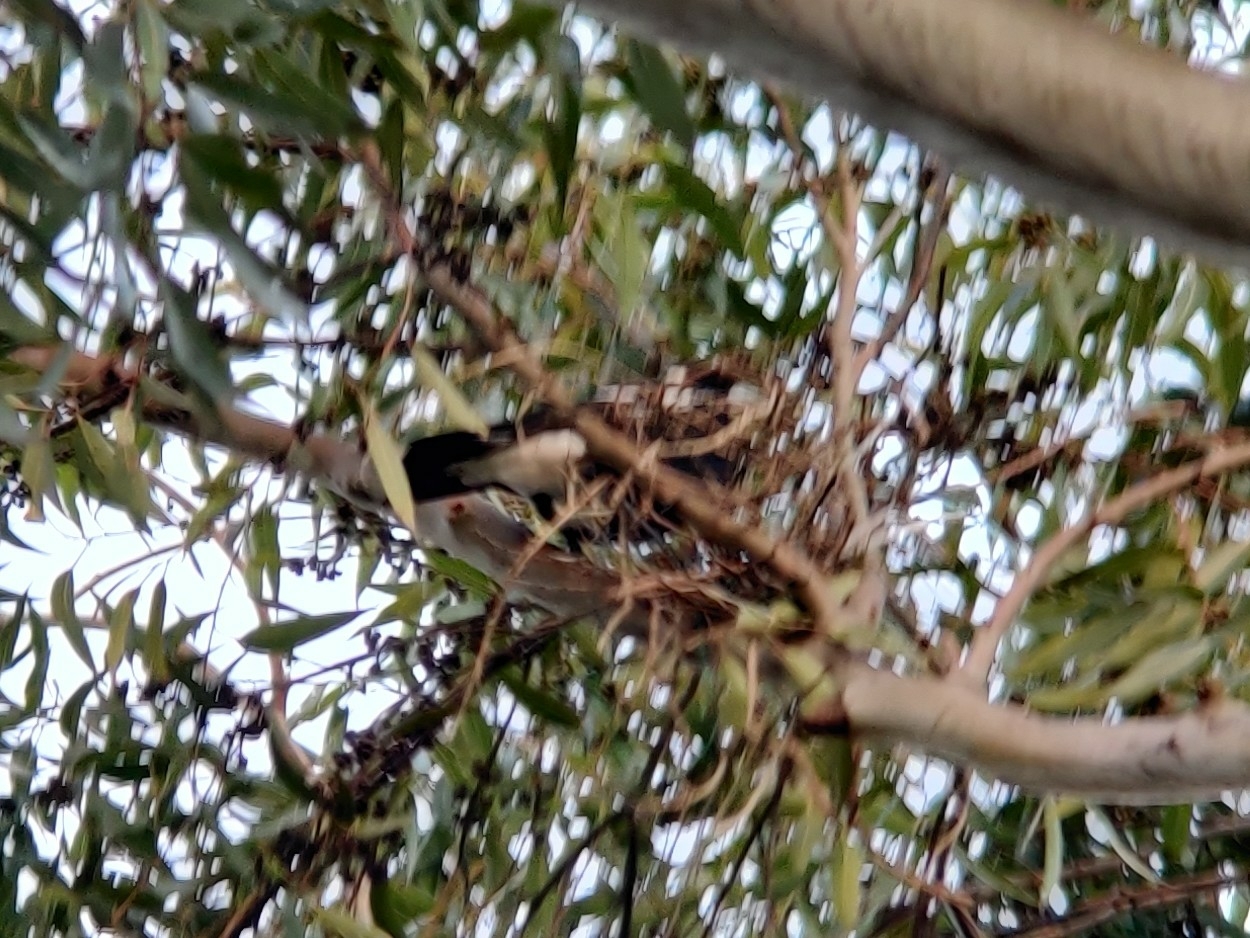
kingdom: Animalia
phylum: Chordata
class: Aves
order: Passeriformes
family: Cracticidae
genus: Gymnorhina
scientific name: Gymnorhina tibicen
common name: Australian magpie
